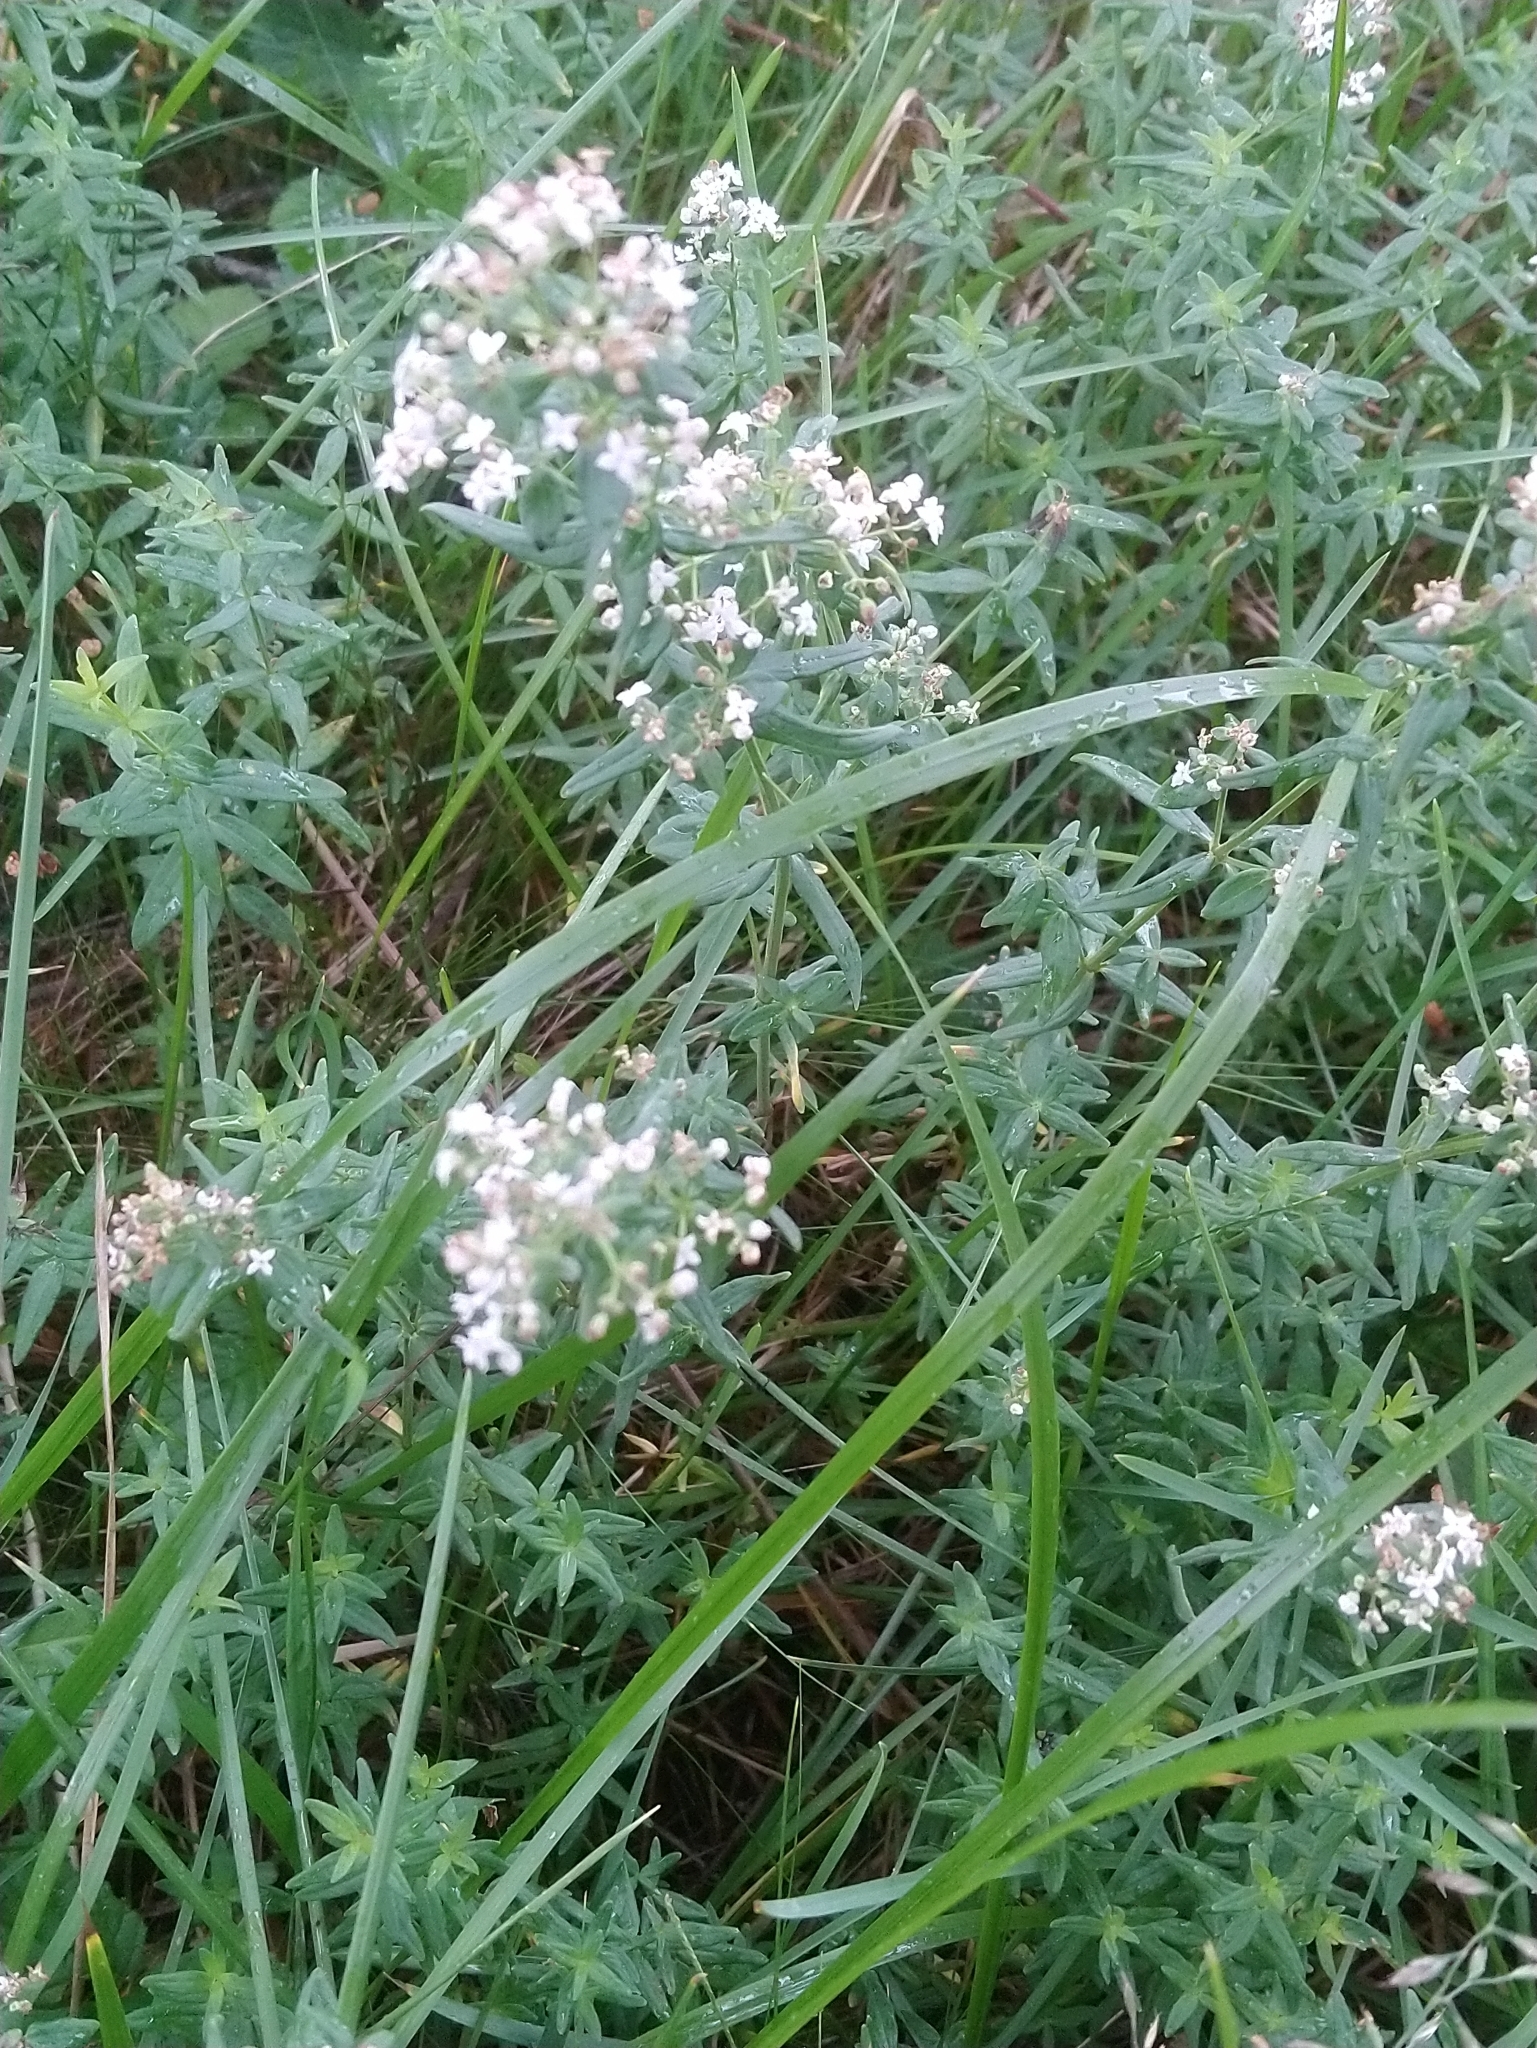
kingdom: Plantae
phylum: Tracheophyta
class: Magnoliopsida
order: Gentianales
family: Rubiaceae
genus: Galium
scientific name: Galium boreale
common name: Northern bedstraw
